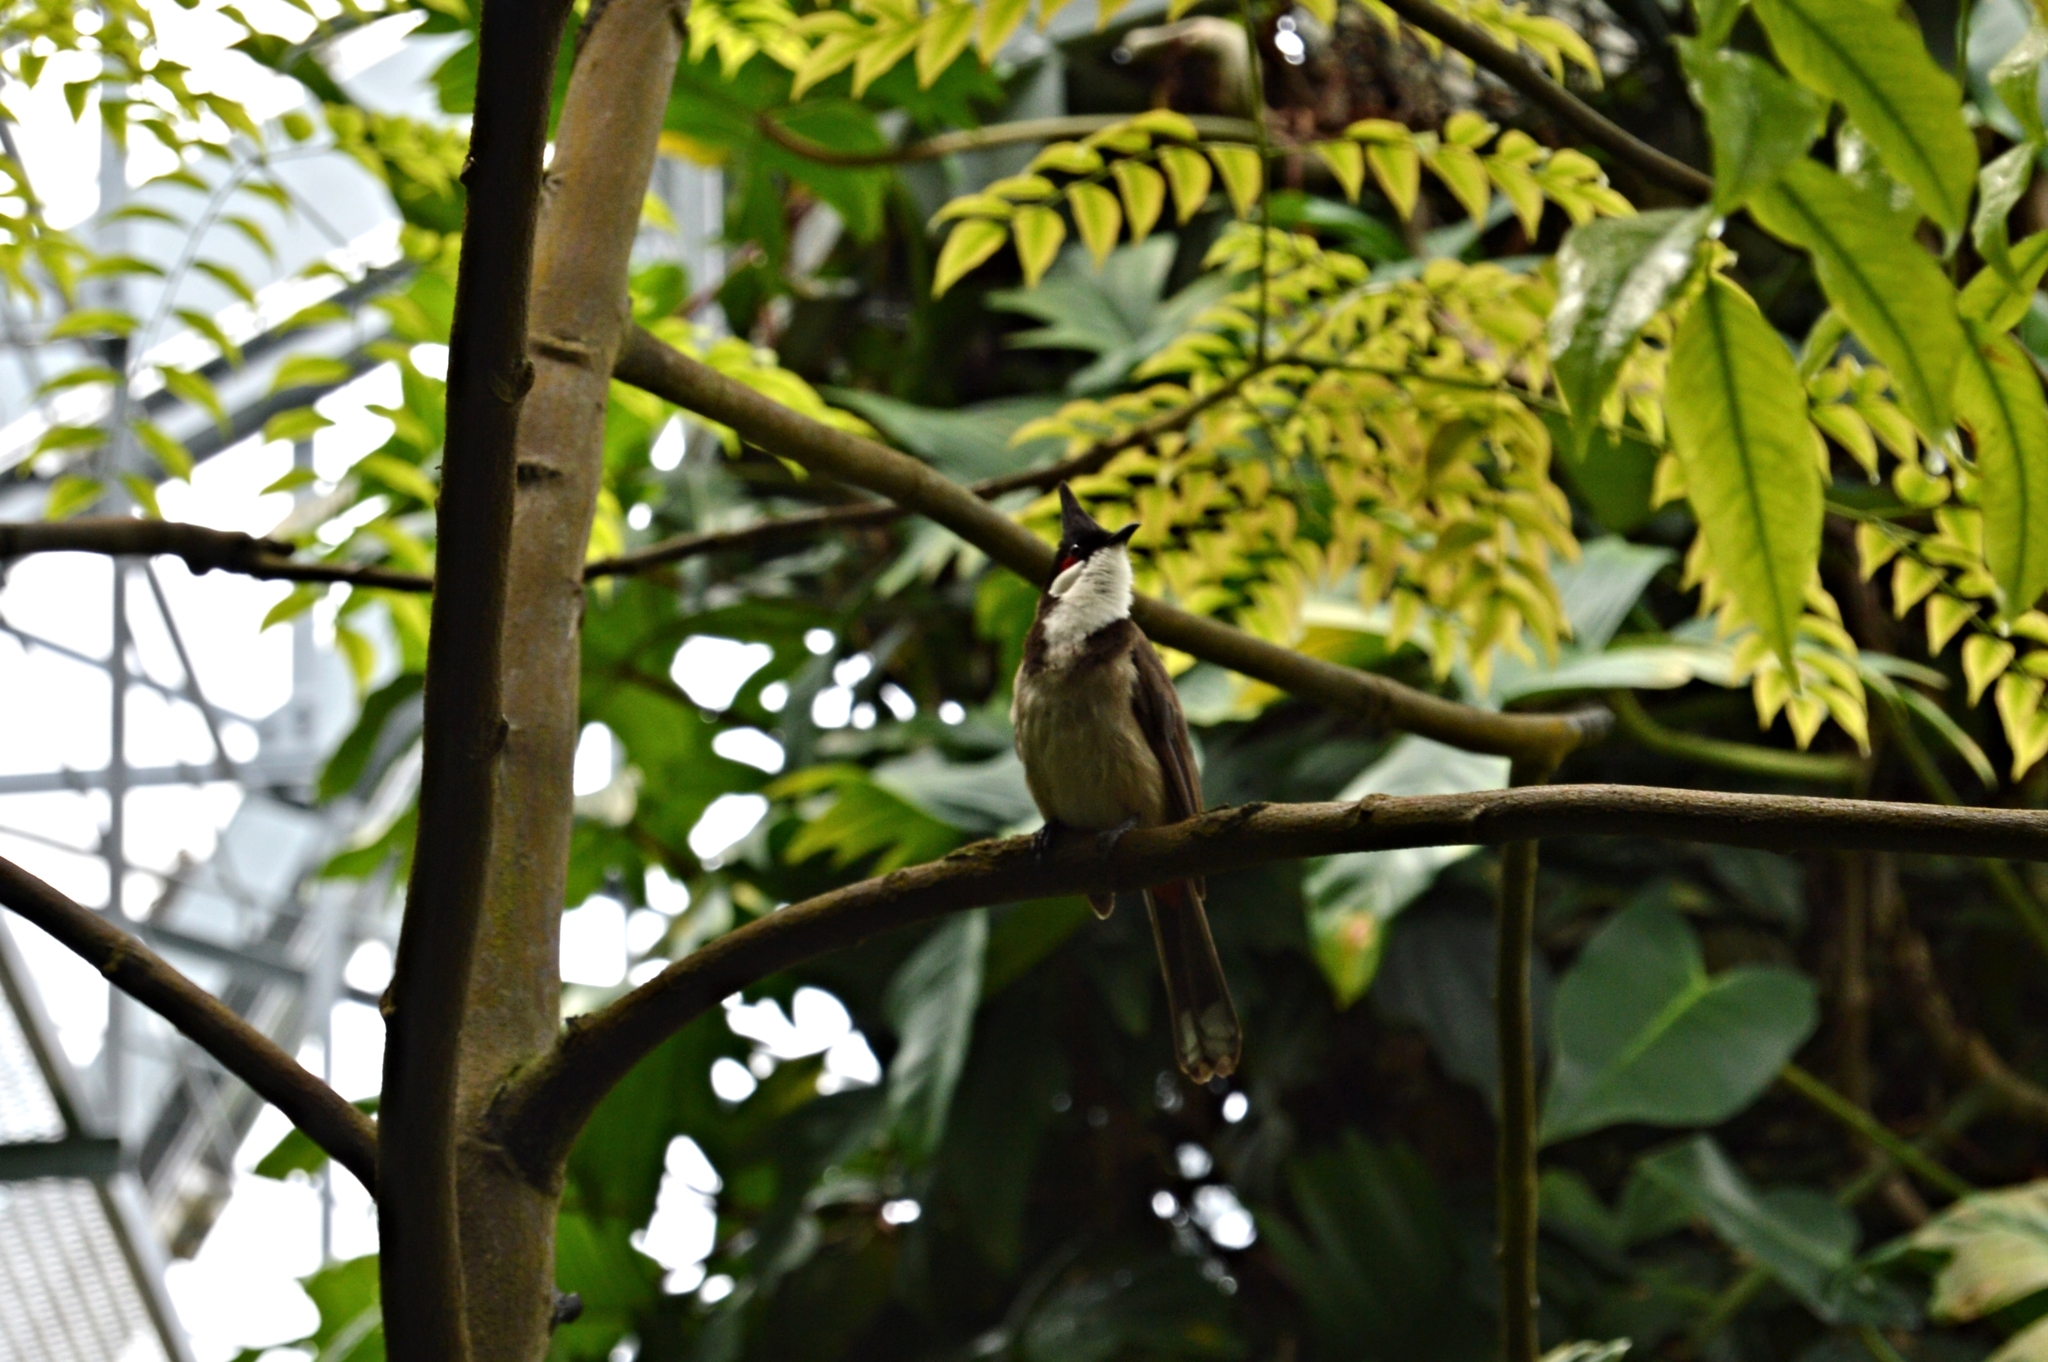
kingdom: Animalia
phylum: Chordata
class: Aves
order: Passeriformes
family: Pycnonotidae
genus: Pycnonotus
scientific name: Pycnonotus jocosus
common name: Red-whiskered bulbul
